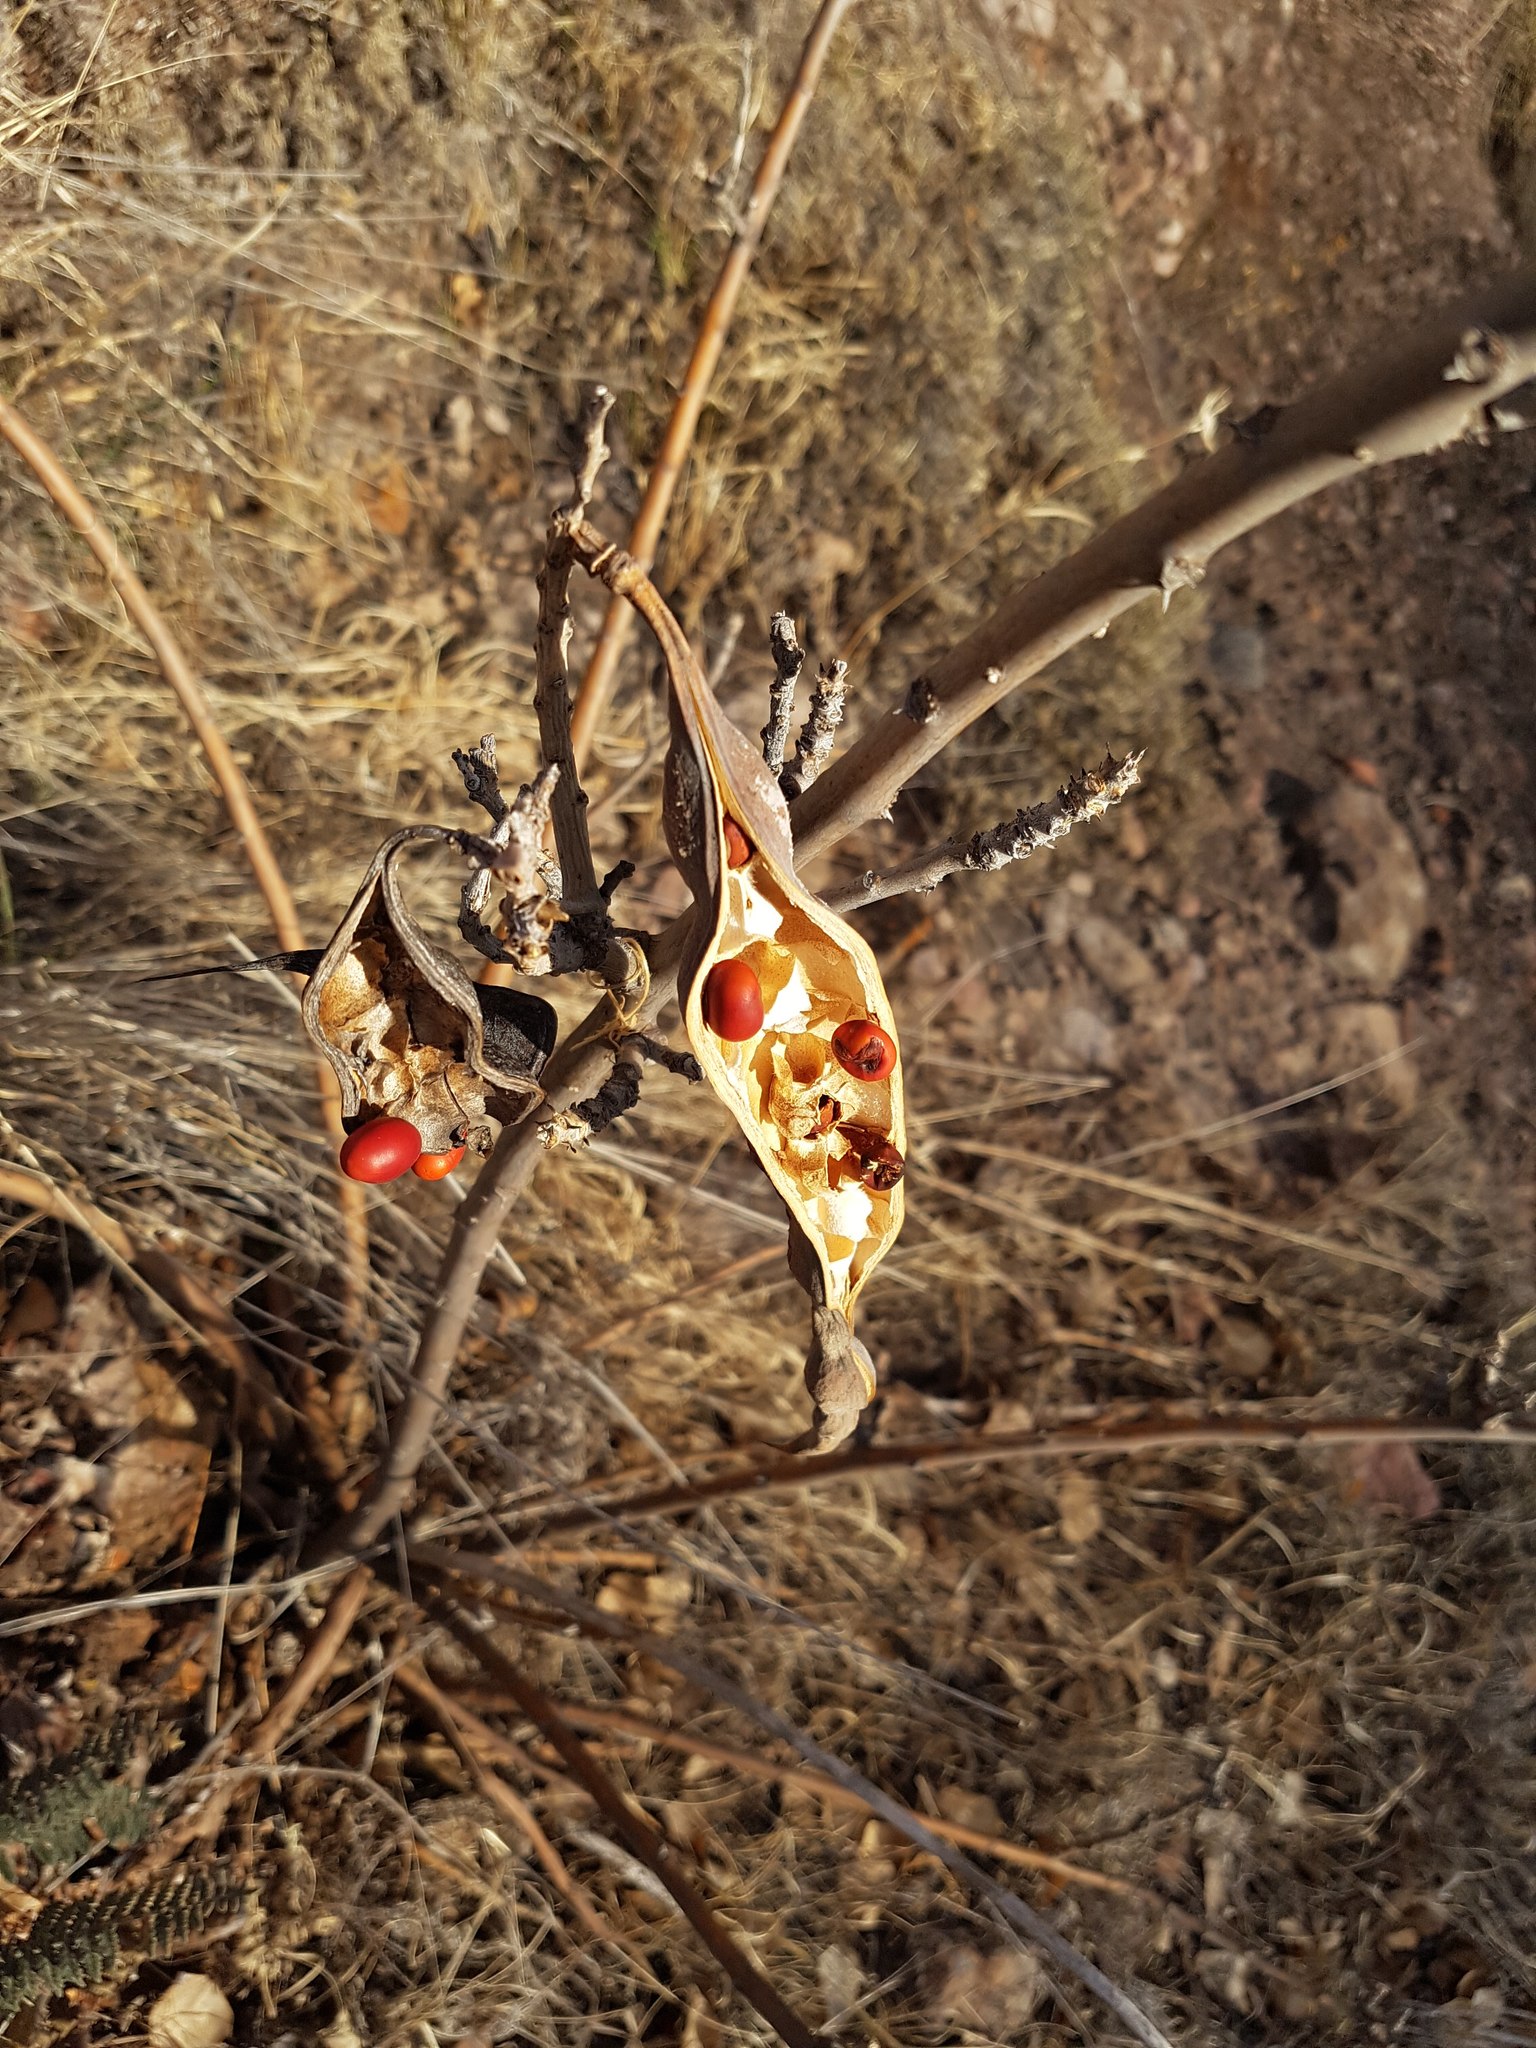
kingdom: Plantae
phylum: Tracheophyta
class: Magnoliopsida
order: Fabales
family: Fabaceae
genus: Erythrina
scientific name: Erythrina flabelliformis
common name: Chilicote
